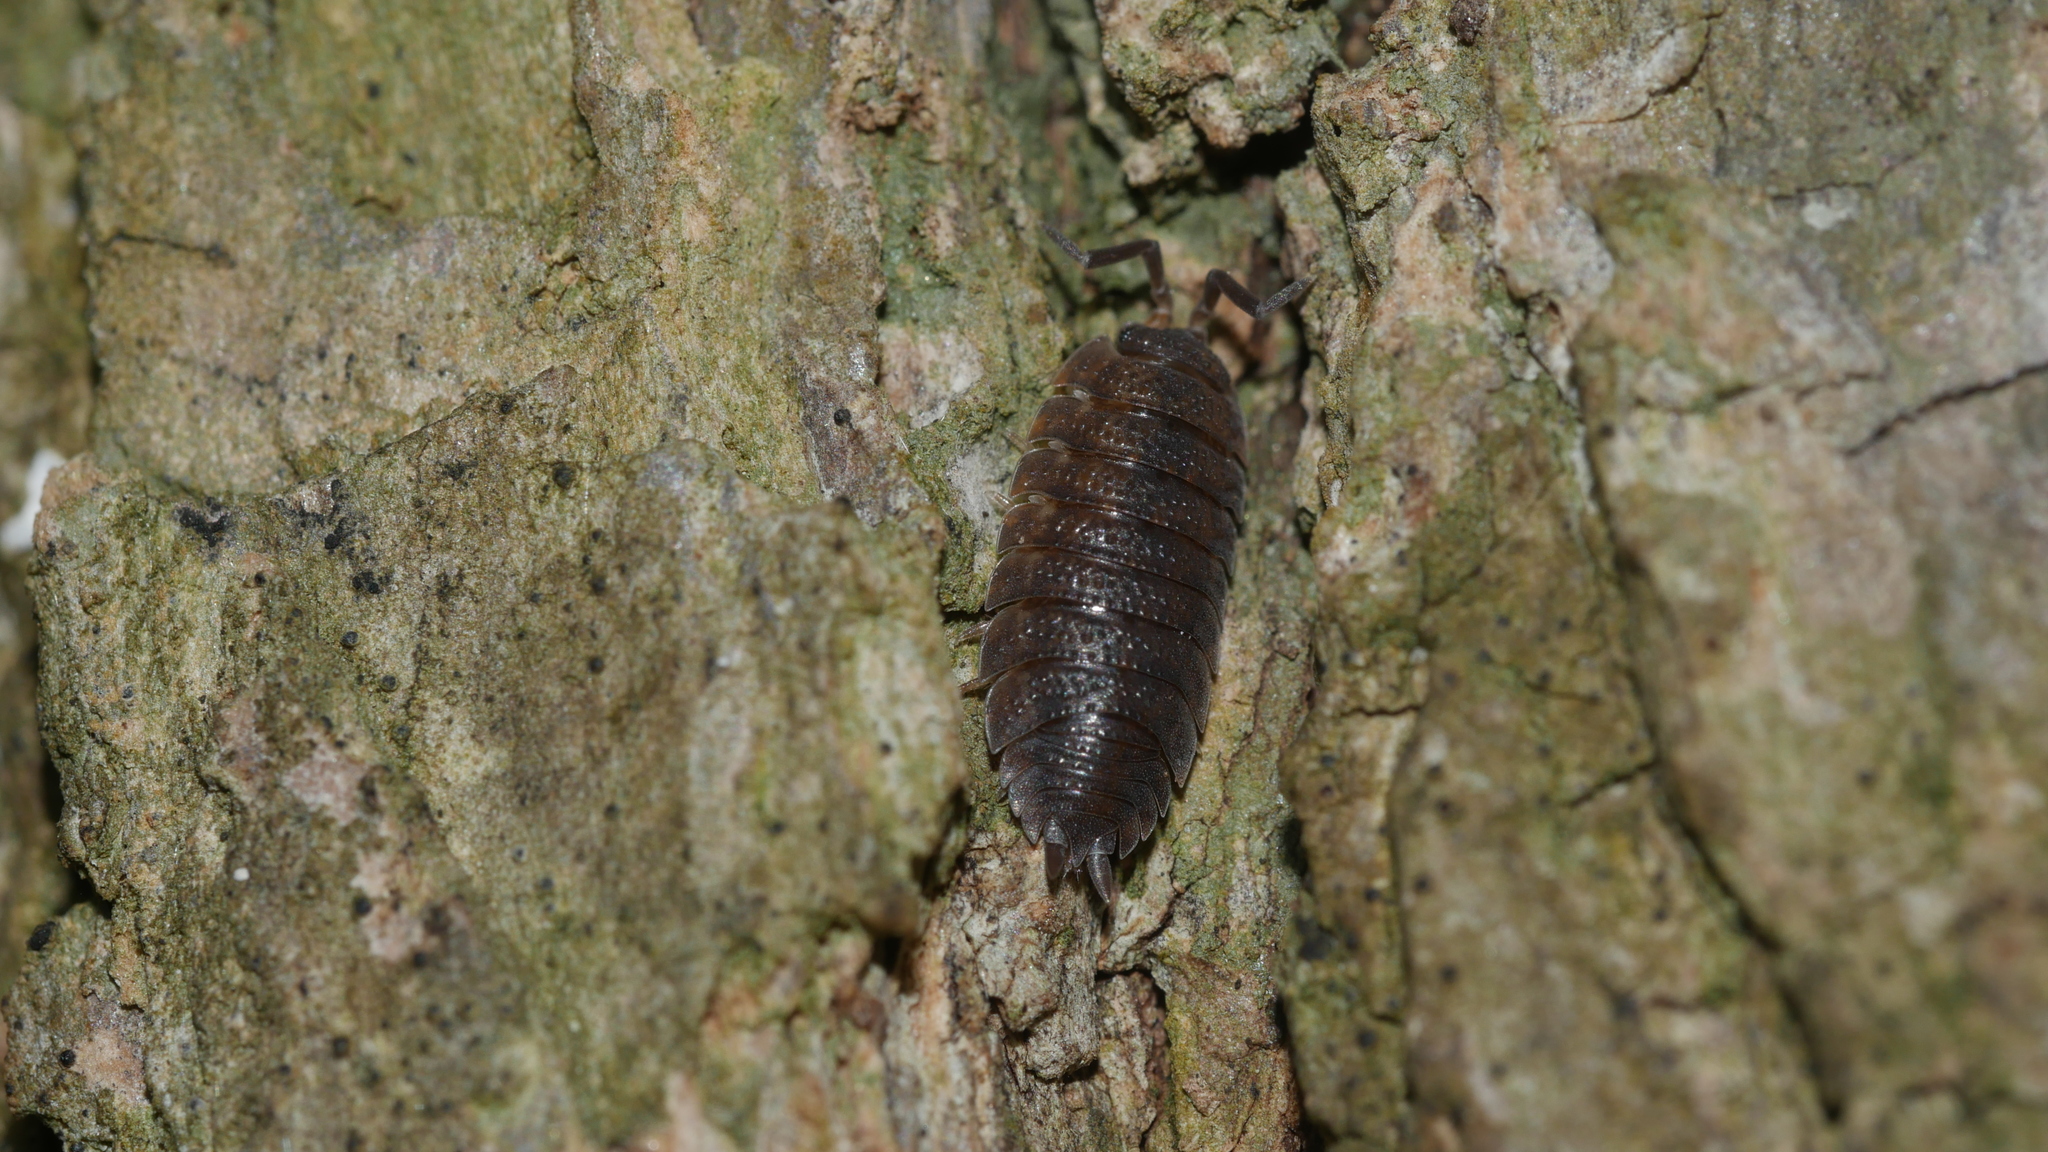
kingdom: Animalia
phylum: Arthropoda
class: Malacostraca
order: Isopoda
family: Porcellionidae
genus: Porcellio
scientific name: Porcellio scaber
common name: Common rough woodlouse
